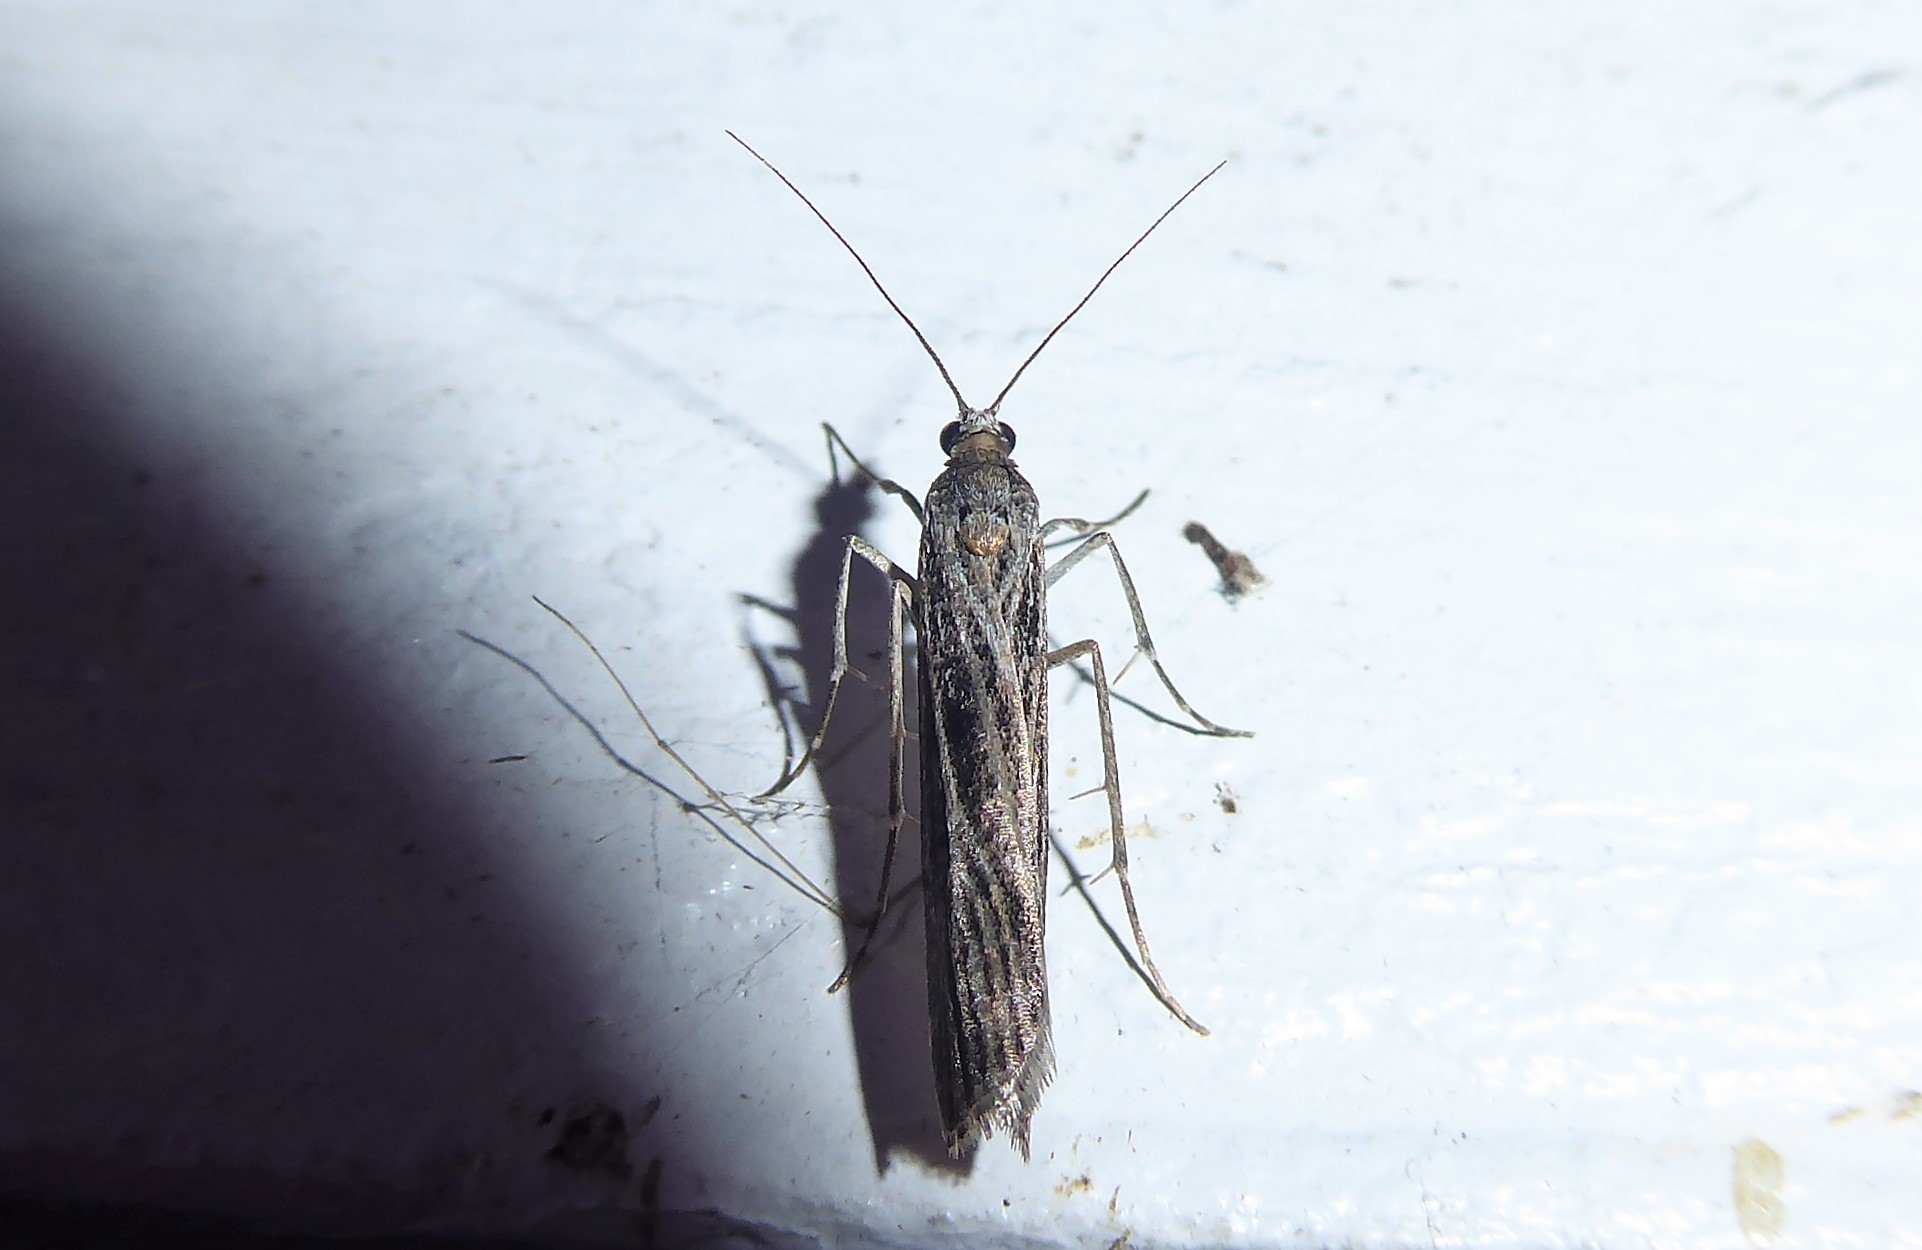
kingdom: Animalia
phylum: Arthropoda
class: Insecta
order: Lepidoptera
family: Crambidae
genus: Eudonia
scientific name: Eudonia atmogramma
